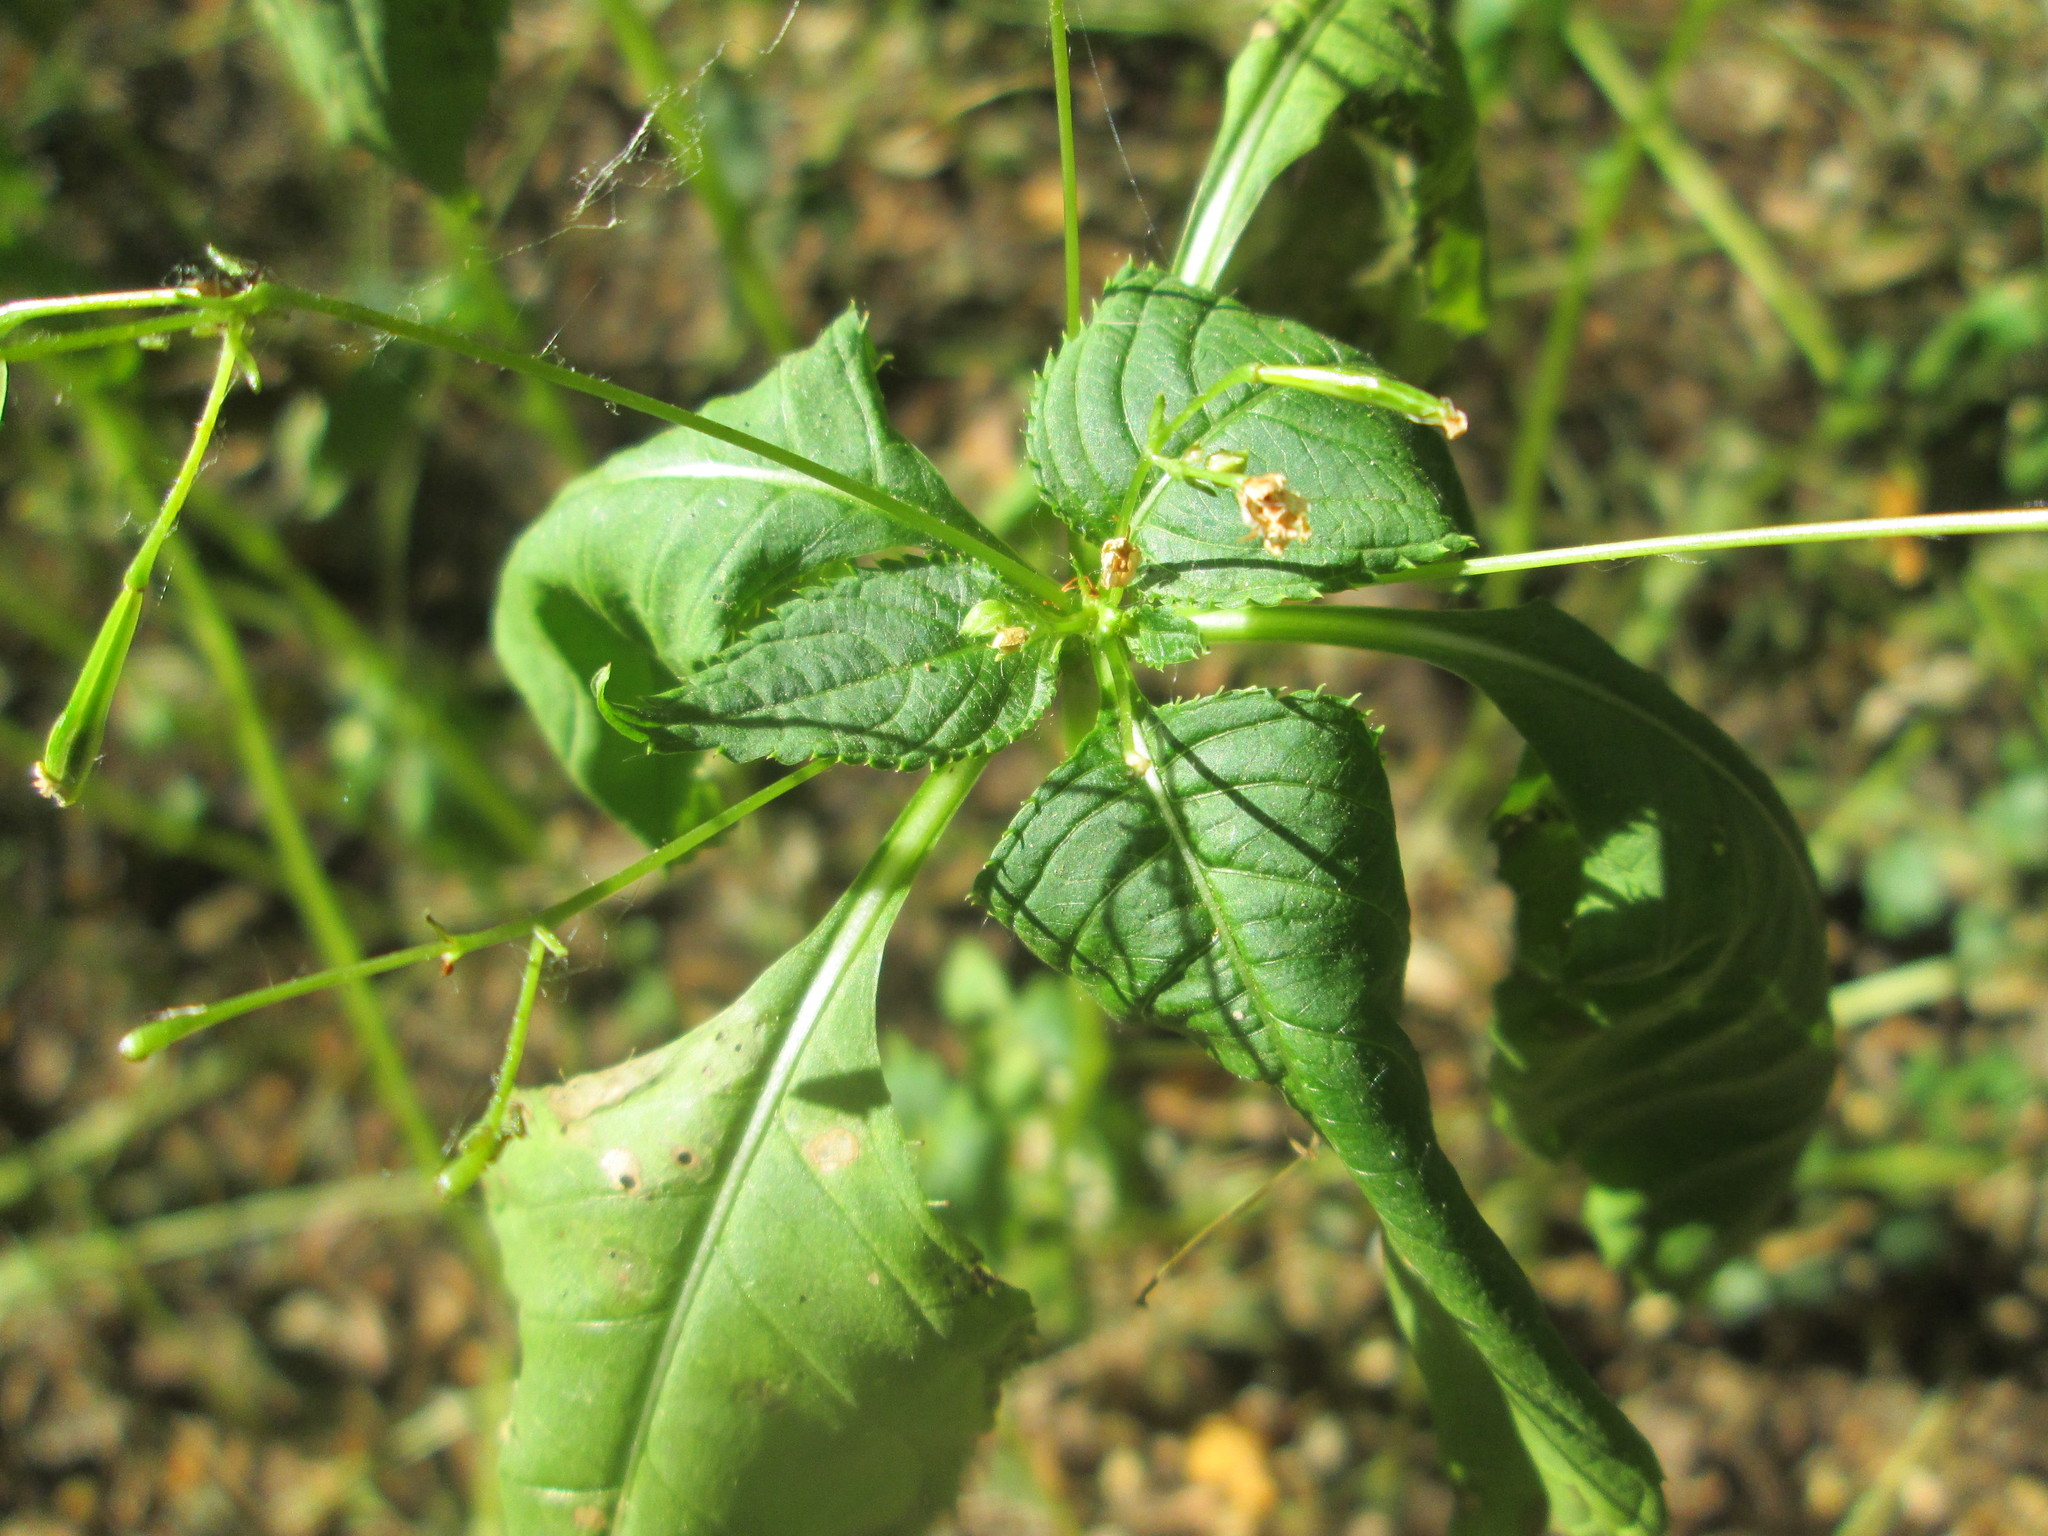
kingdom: Plantae
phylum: Tracheophyta
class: Magnoliopsida
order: Ericales
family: Balsaminaceae
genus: Impatiens
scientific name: Impatiens parviflora
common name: Small balsam
